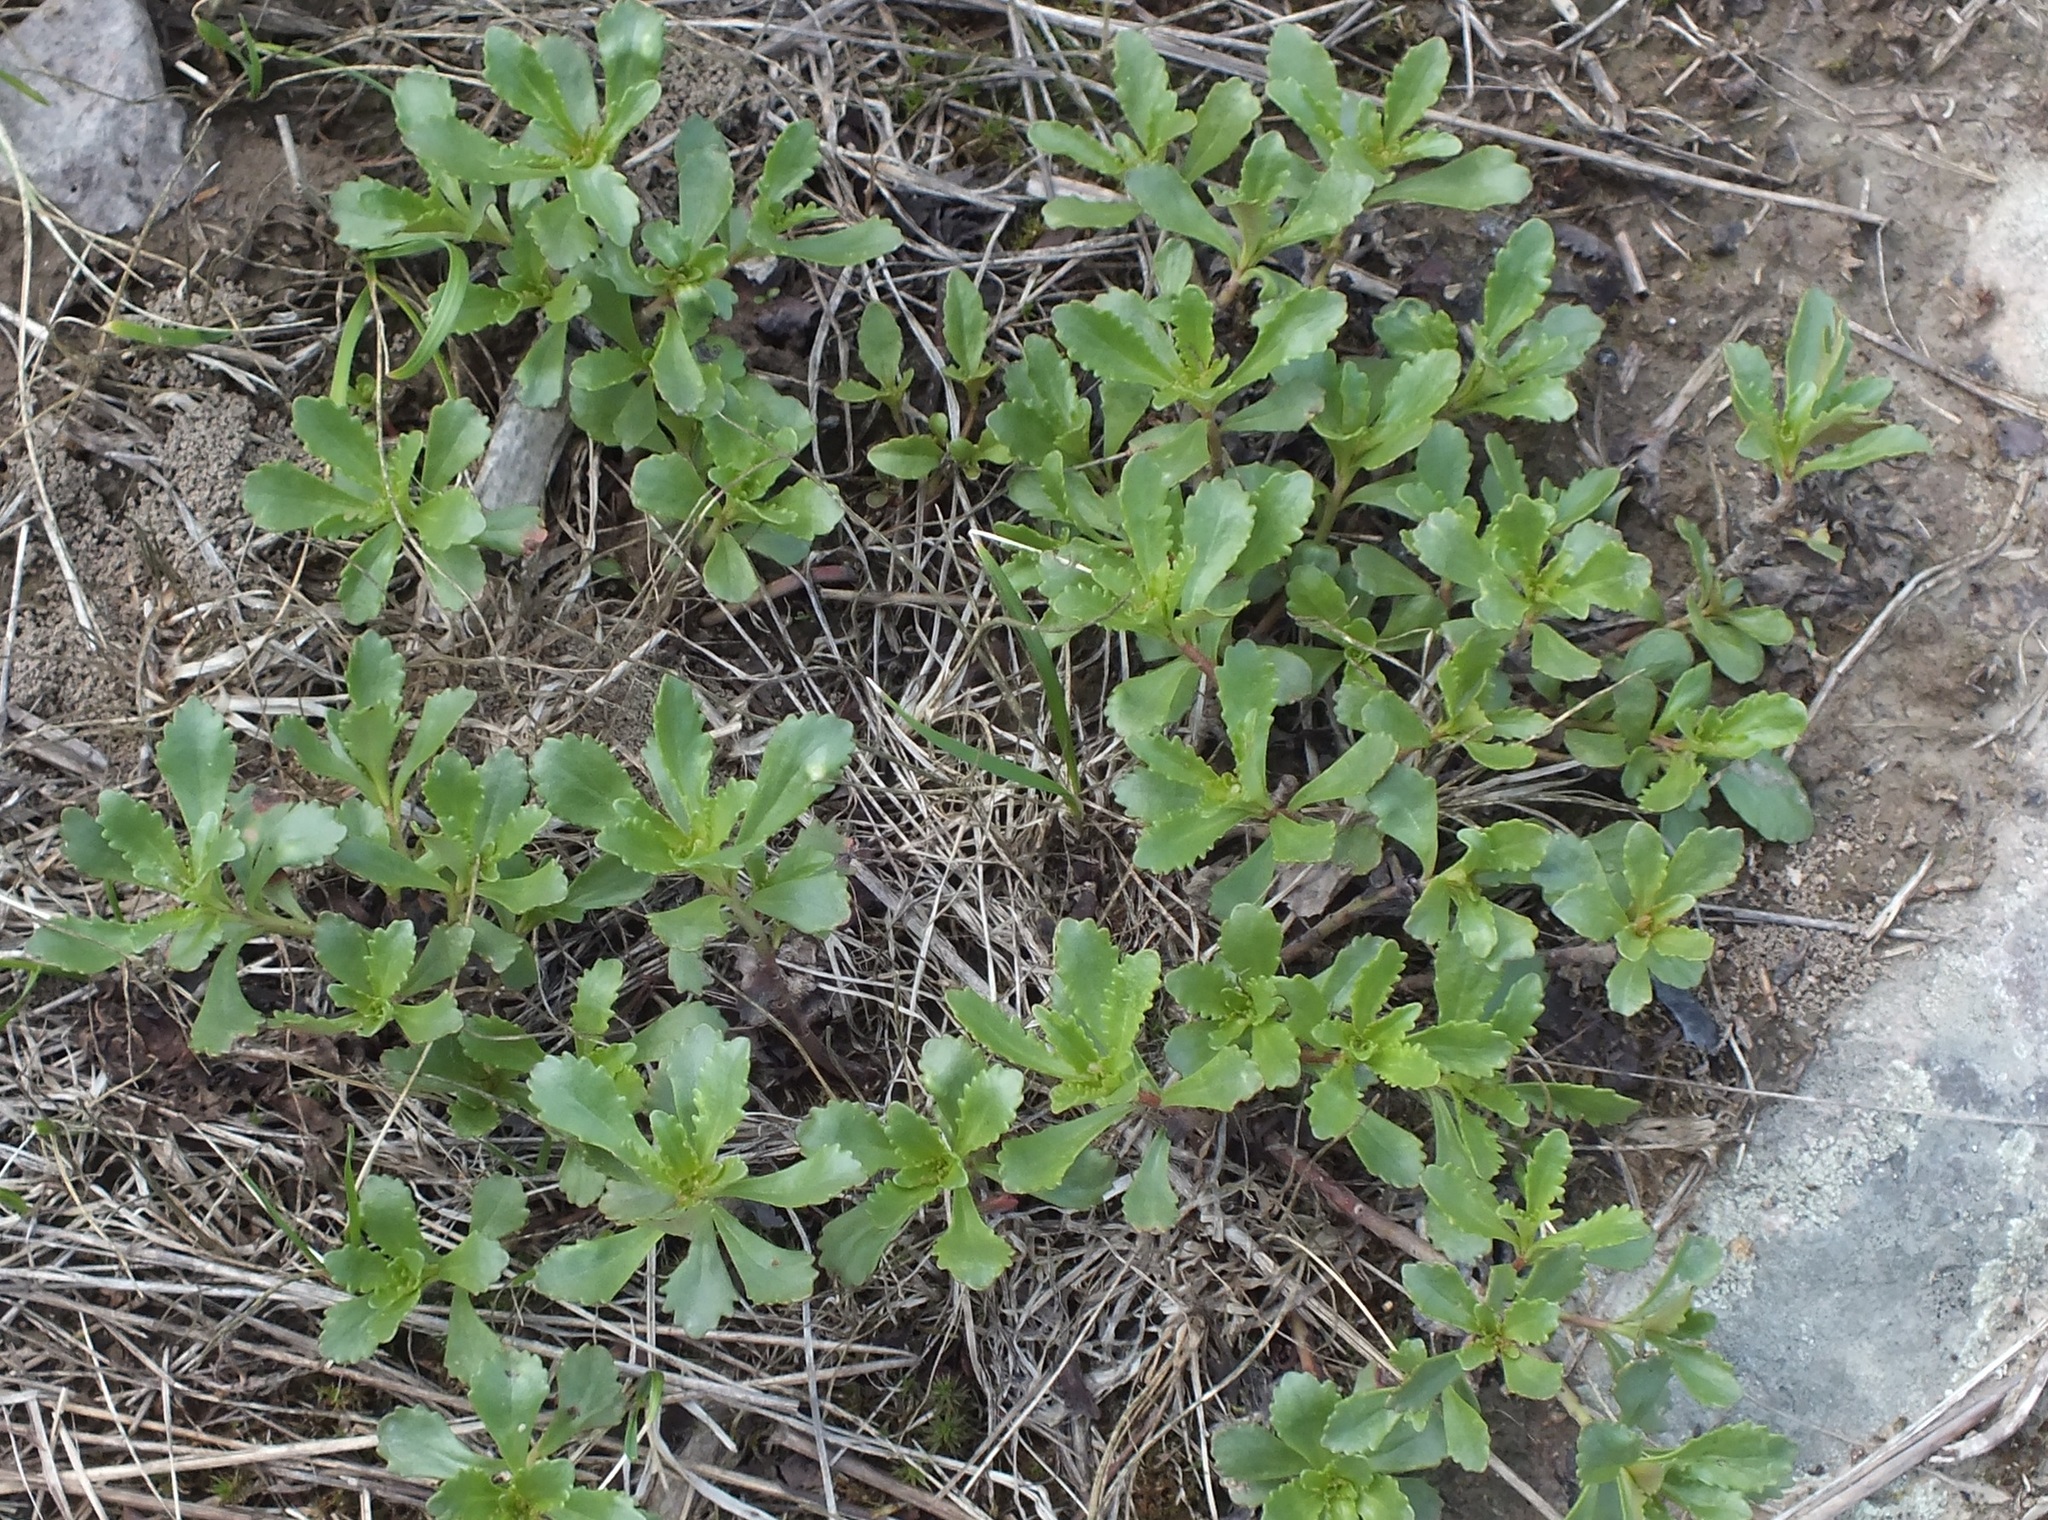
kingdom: Plantae
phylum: Tracheophyta
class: Magnoliopsida
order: Saxifragales
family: Crassulaceae
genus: Phedimus
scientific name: Phedimus hybridus
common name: Hybrid stonecrop
